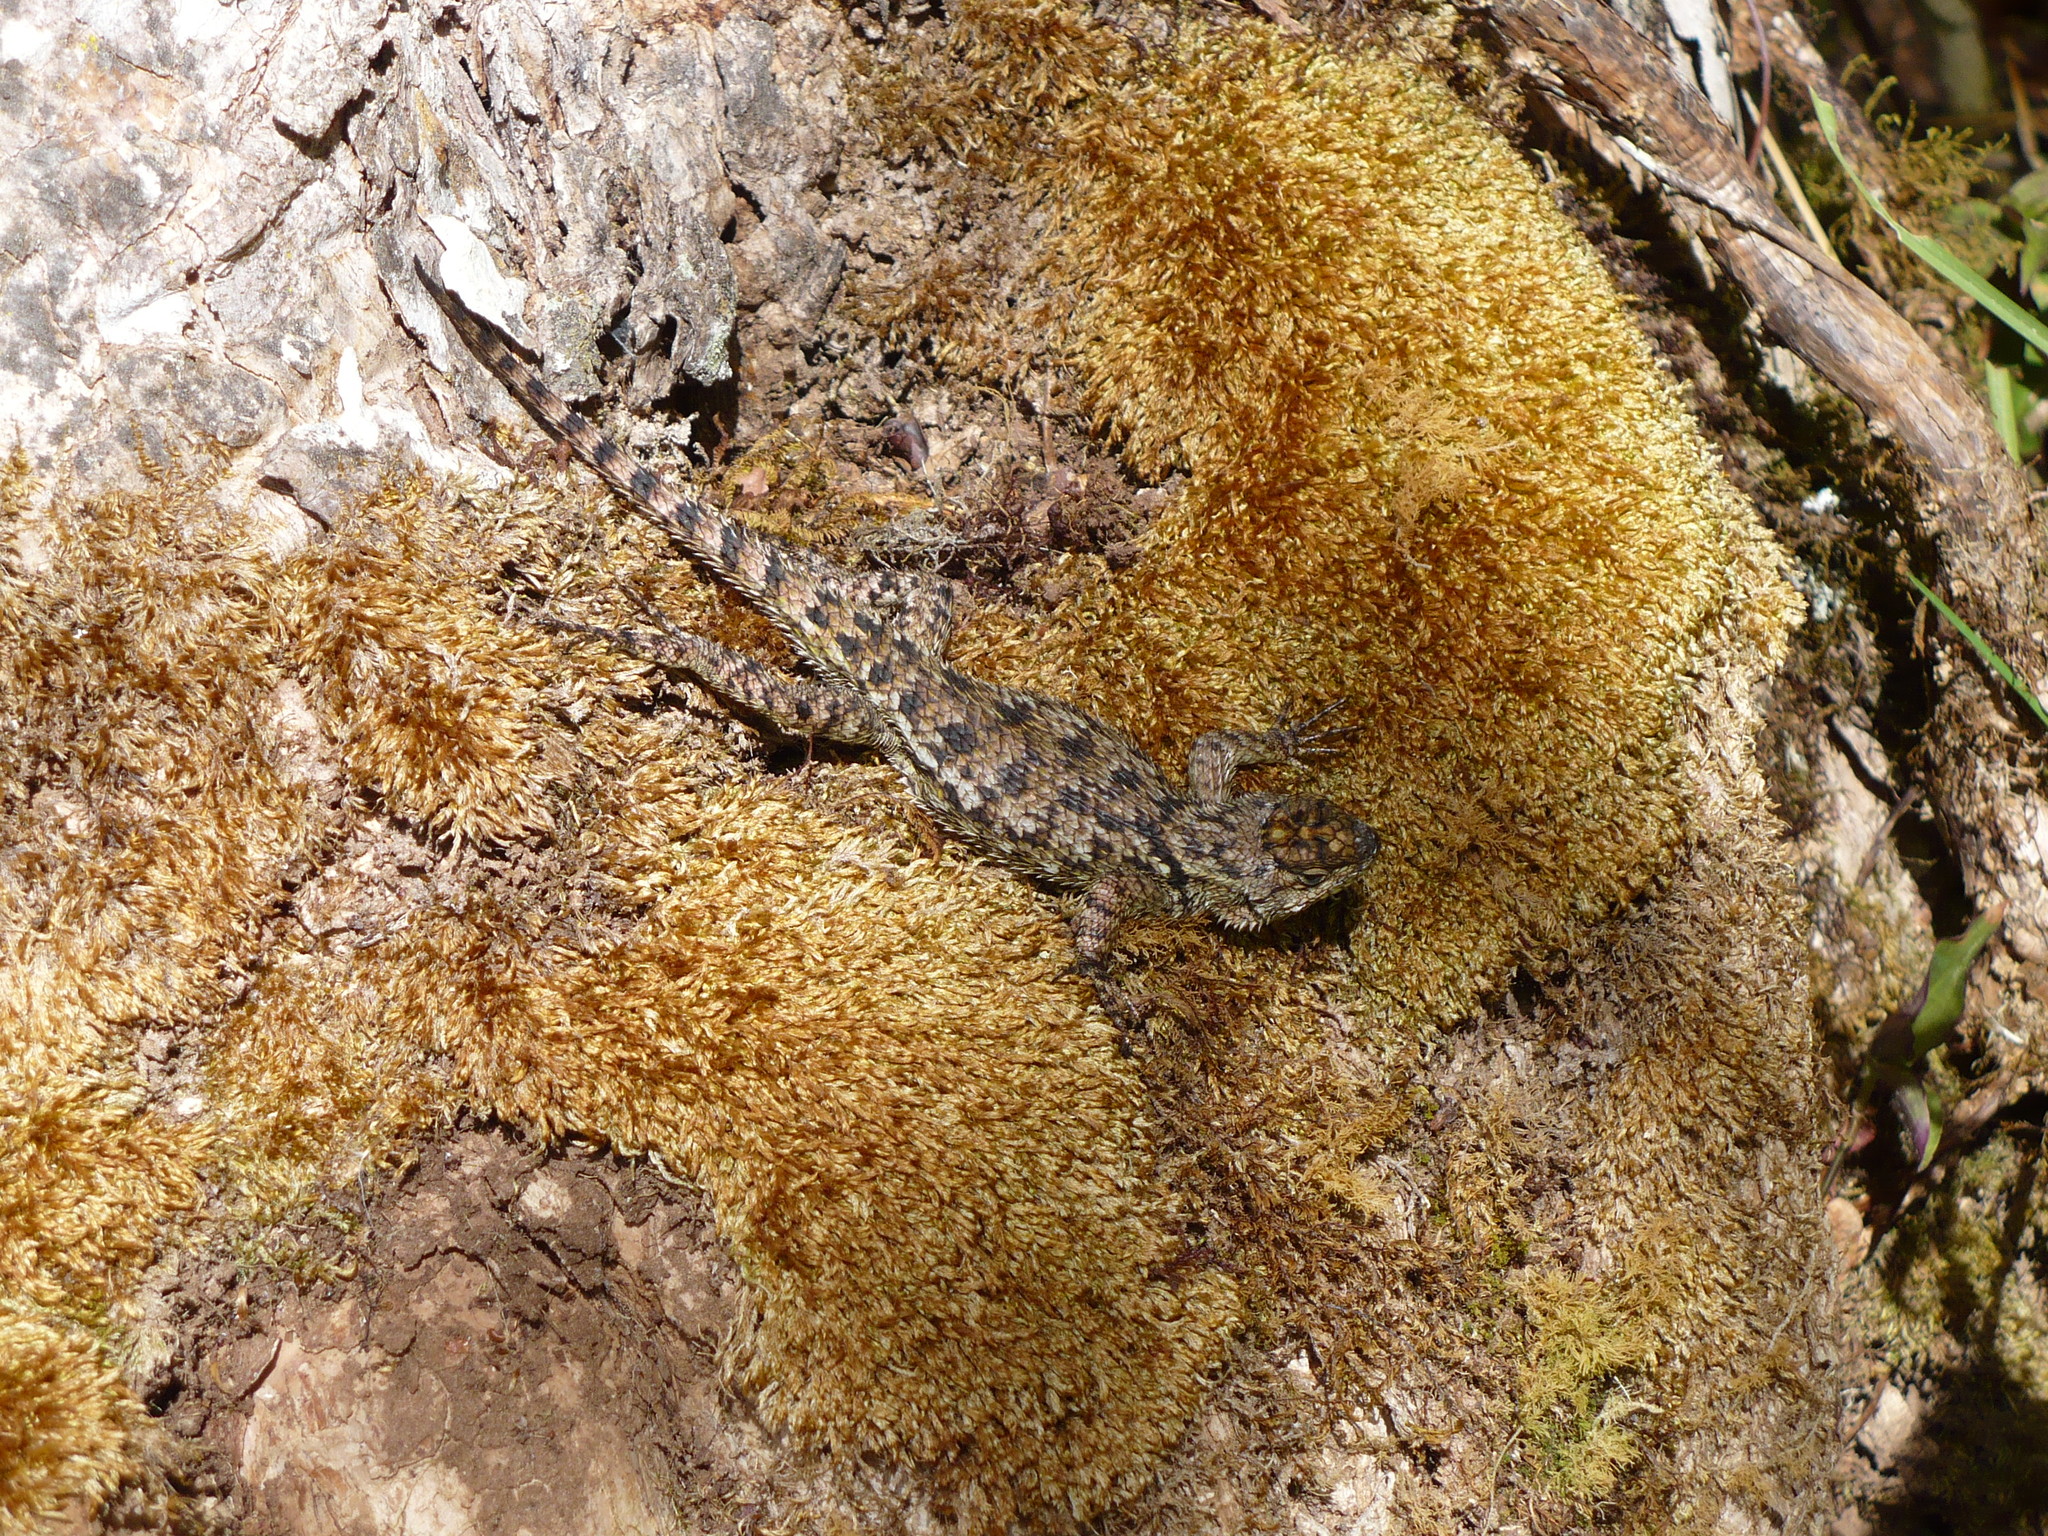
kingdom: Animalia
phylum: Chordata
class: Squamata
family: Phrynosomatidae
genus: Sceloporus
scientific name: Sceloporus malachiticus
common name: Green spiny lizard
